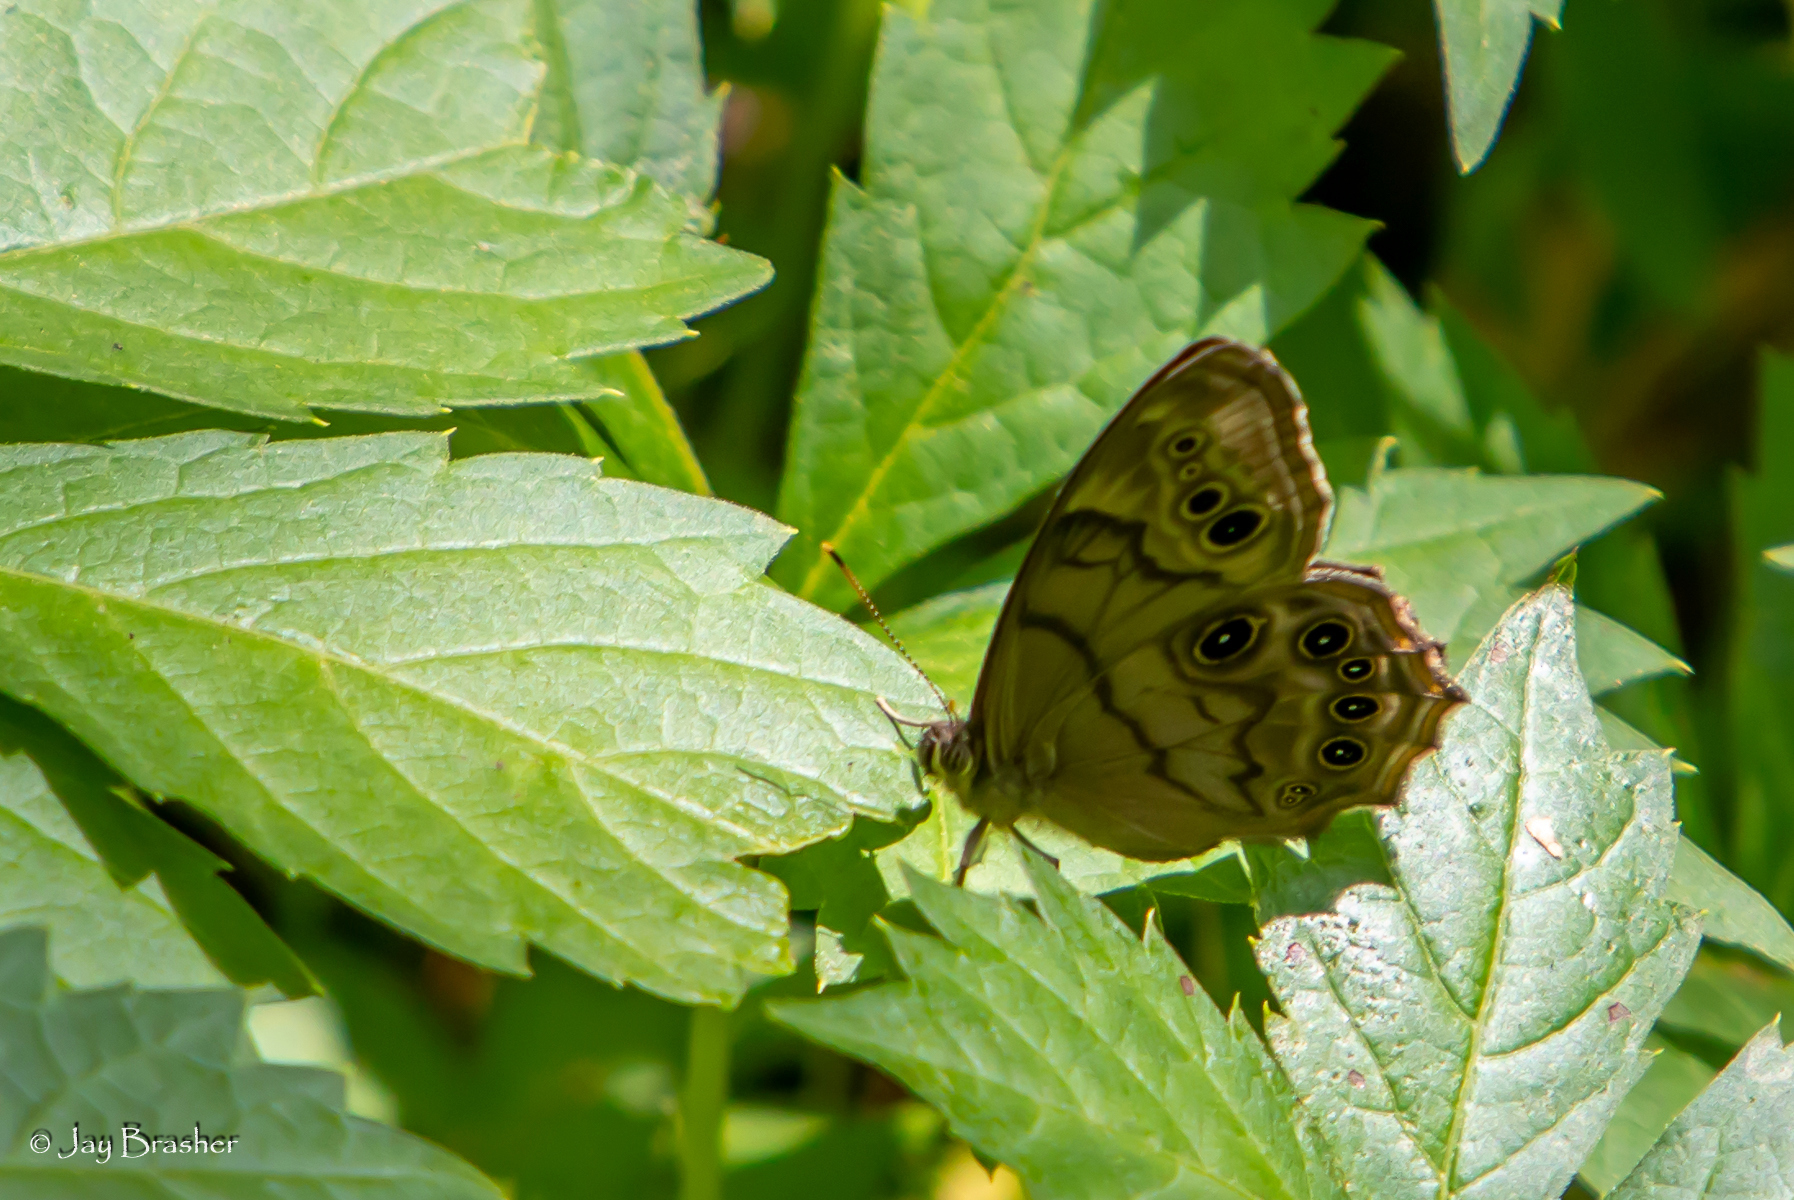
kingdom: Animalia
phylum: Arthropoda
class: Insecta
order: Lepidoptera
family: Nymphalidae
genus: Lethe
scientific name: Lethe anthedon
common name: Northern pearly-eye
